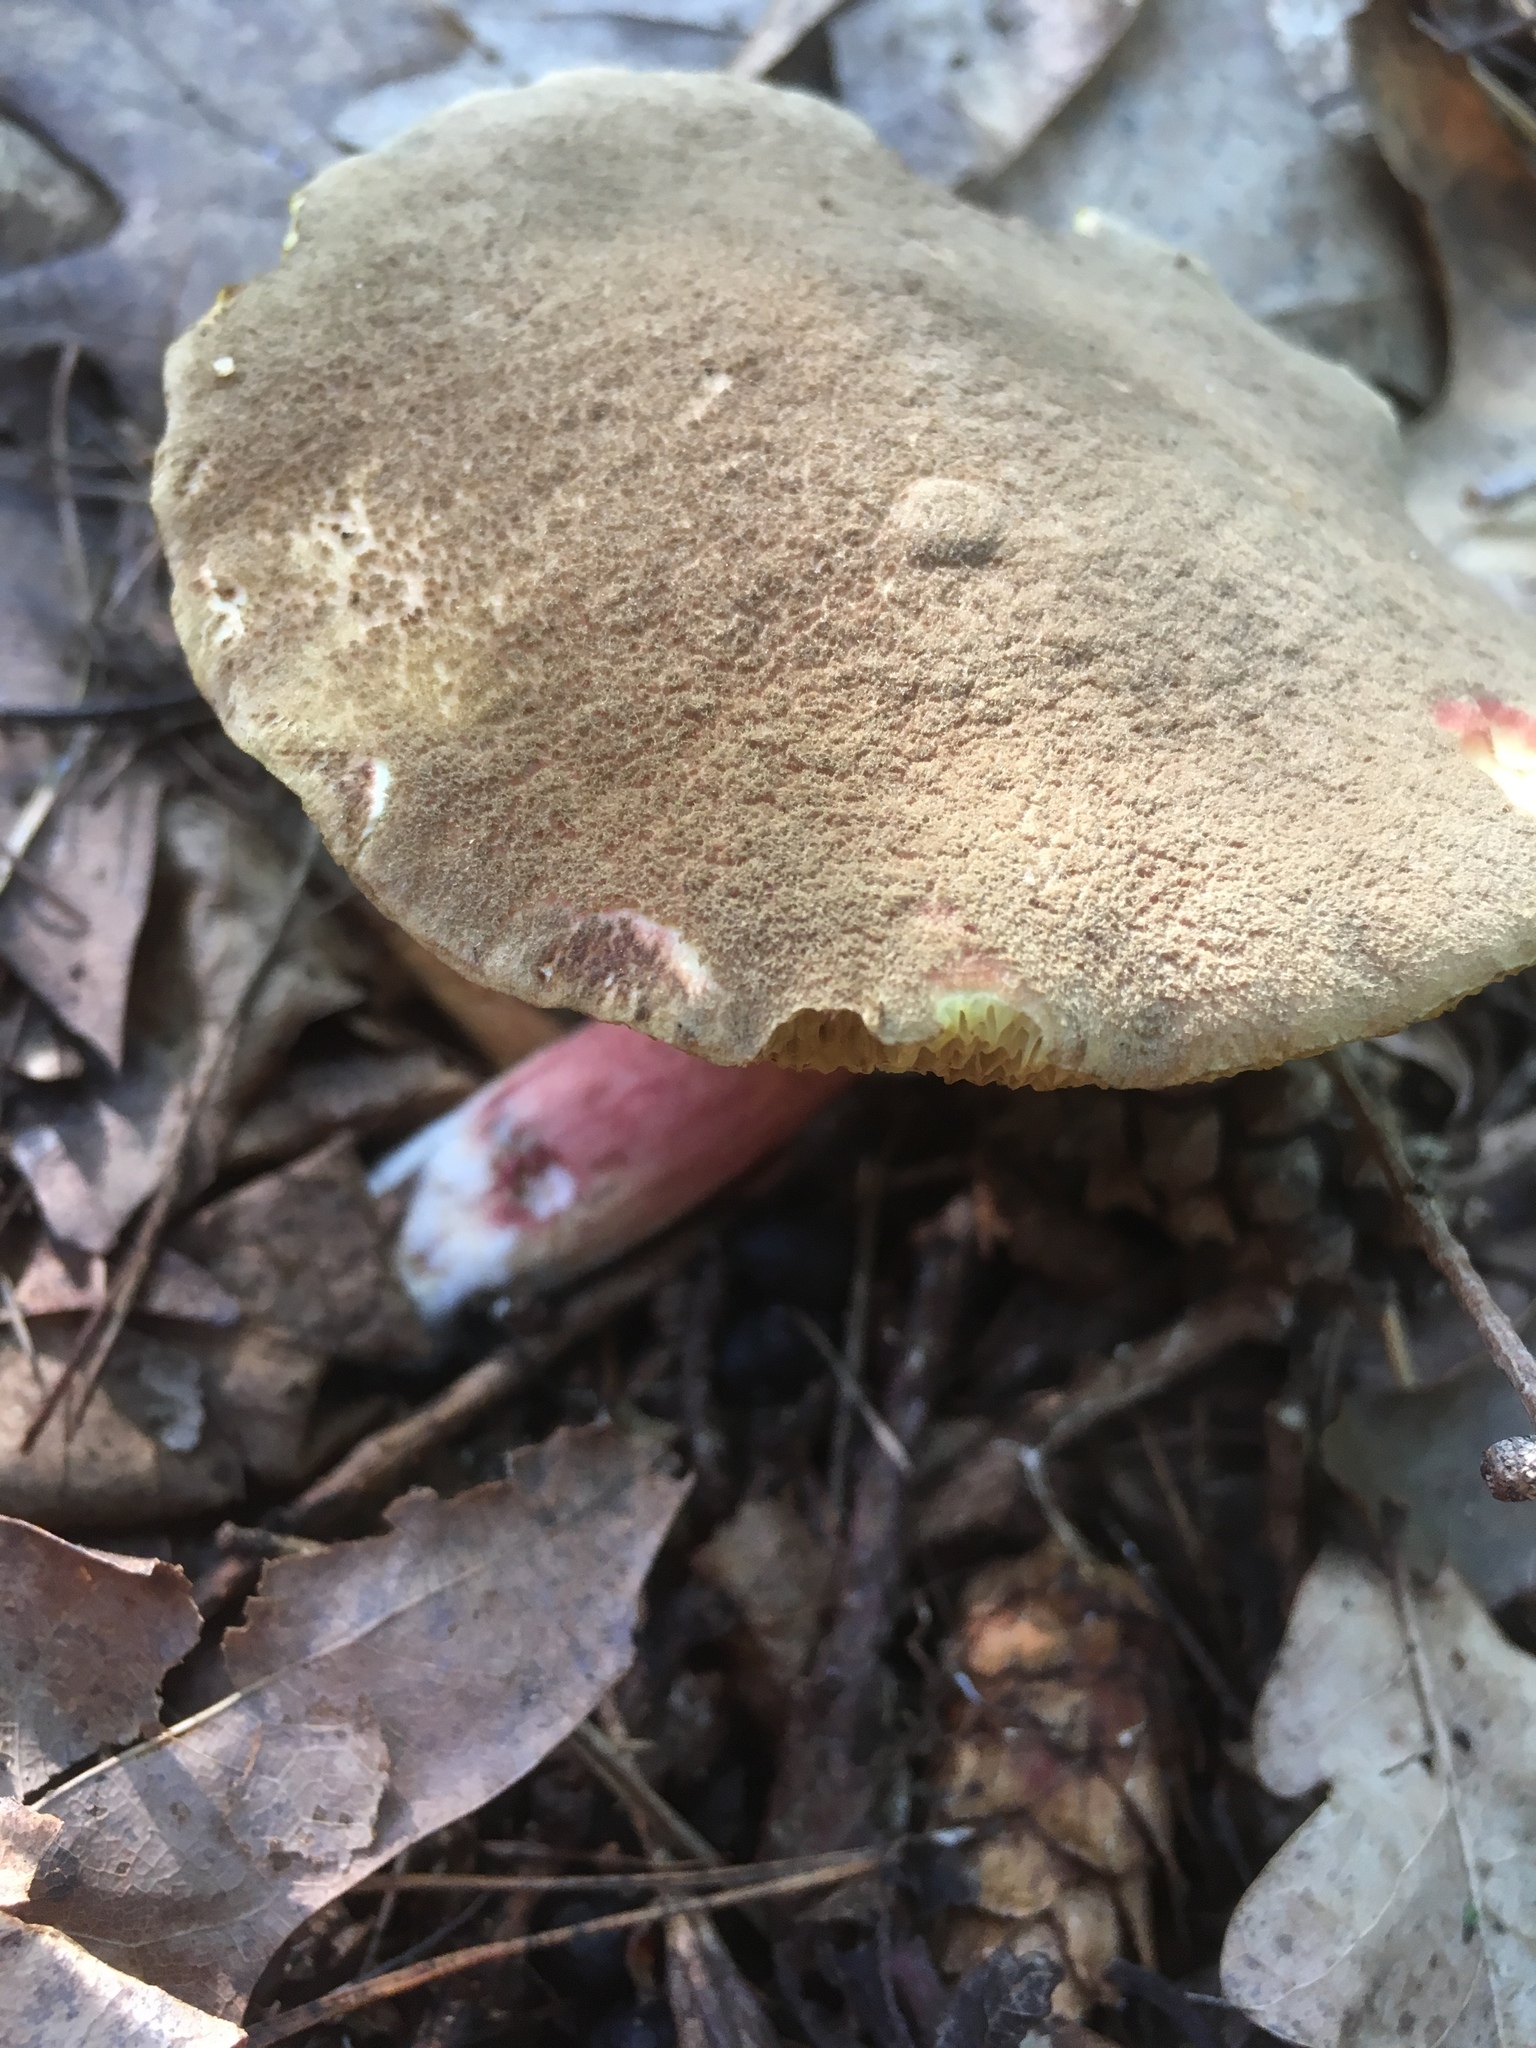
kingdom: Fungi
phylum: Basidiomycota
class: Agaricomycetes
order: Boletales
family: Boletaceae
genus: Xerocomellus
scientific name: Xerocomellus chrysenteron
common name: Red-cracking bolete
